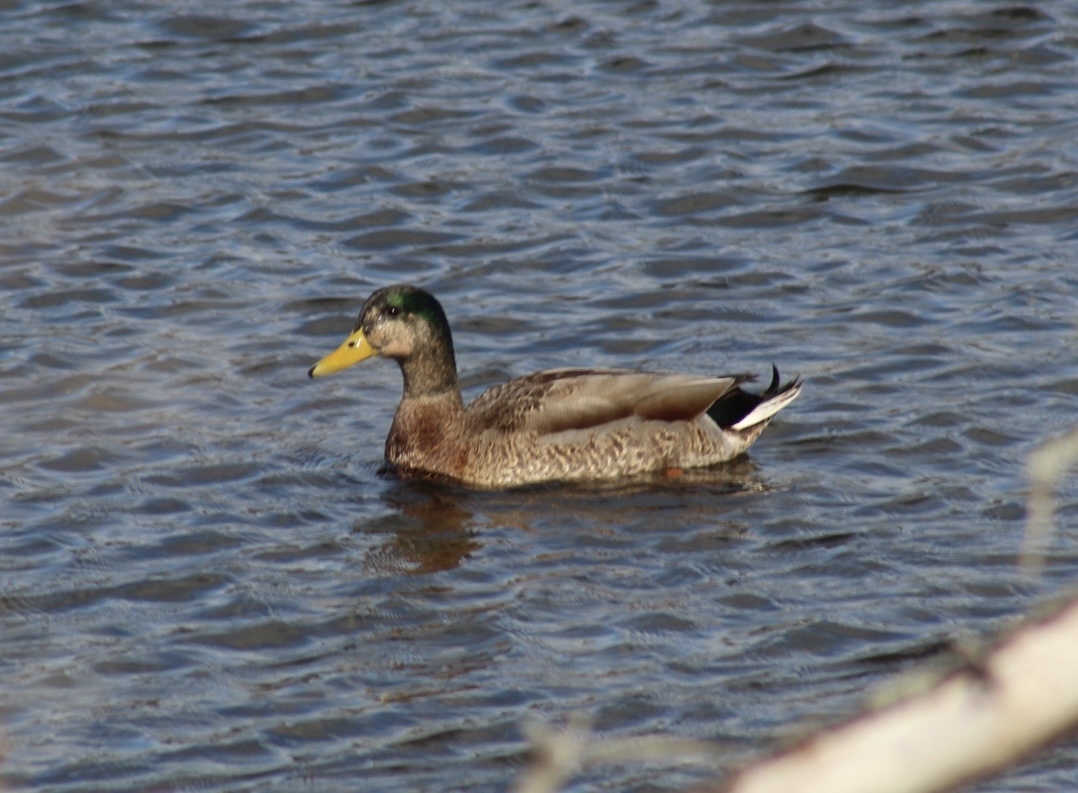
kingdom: Animalia
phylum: Chordata
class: Aves
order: Anseriformes
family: Anatidae
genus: Anas
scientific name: Anas
